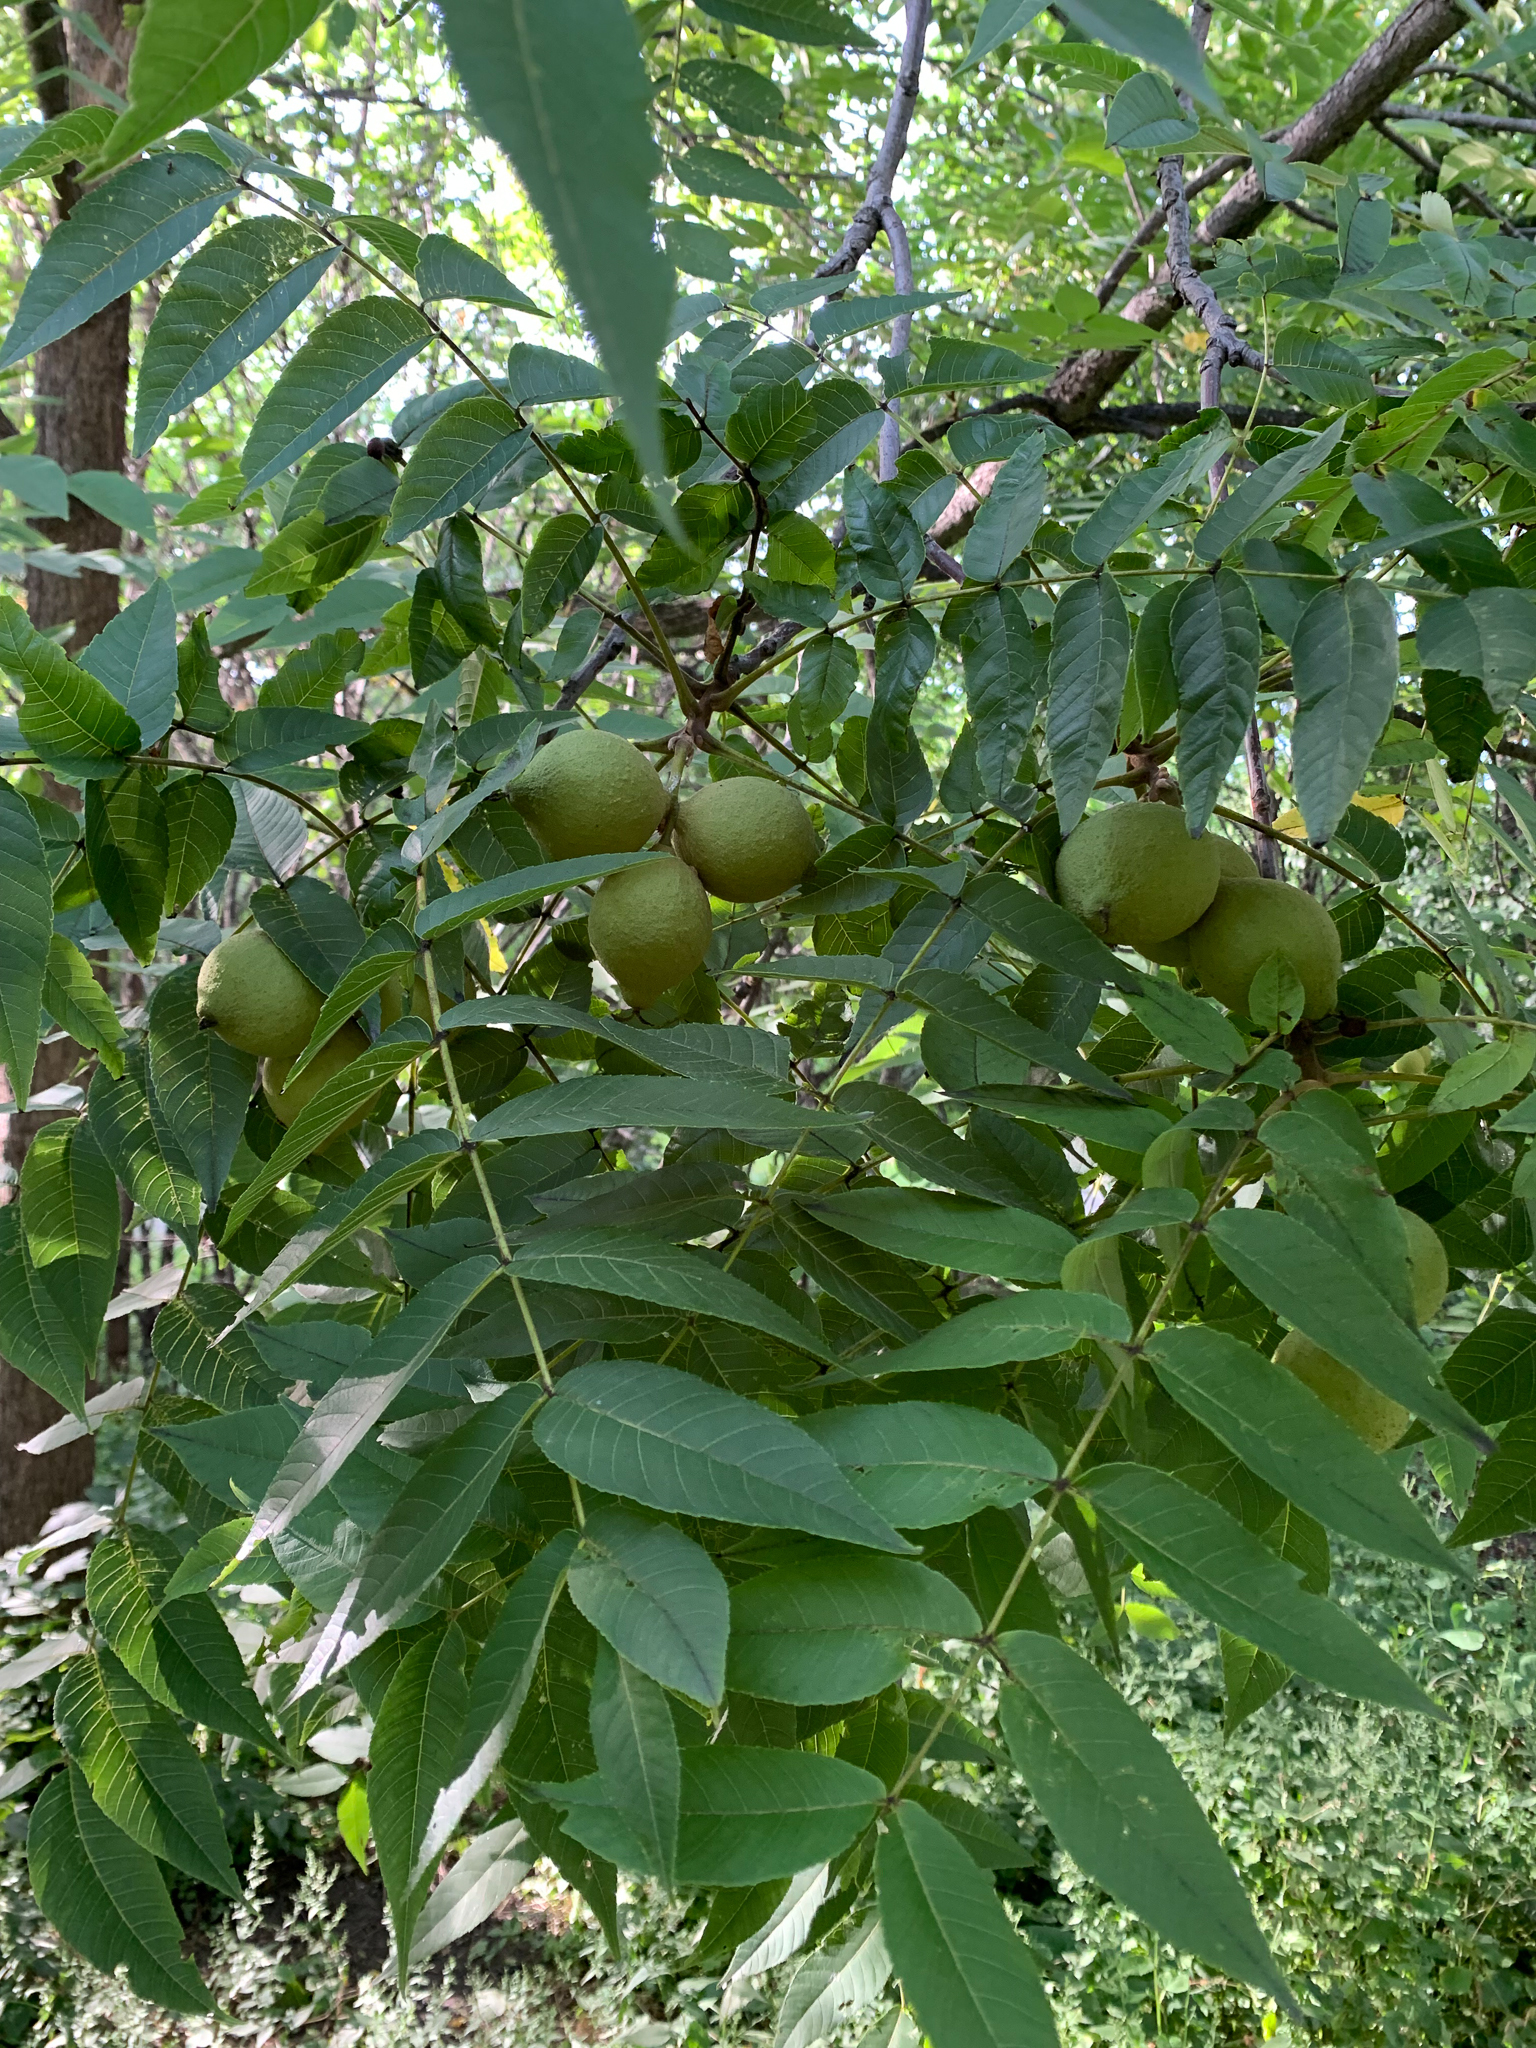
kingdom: Plantae
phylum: Tracheophyta
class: Magnoliopsida
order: Fagales
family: Juglandaceae
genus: Juglans
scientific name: Juglans nigra
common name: Black walnut
